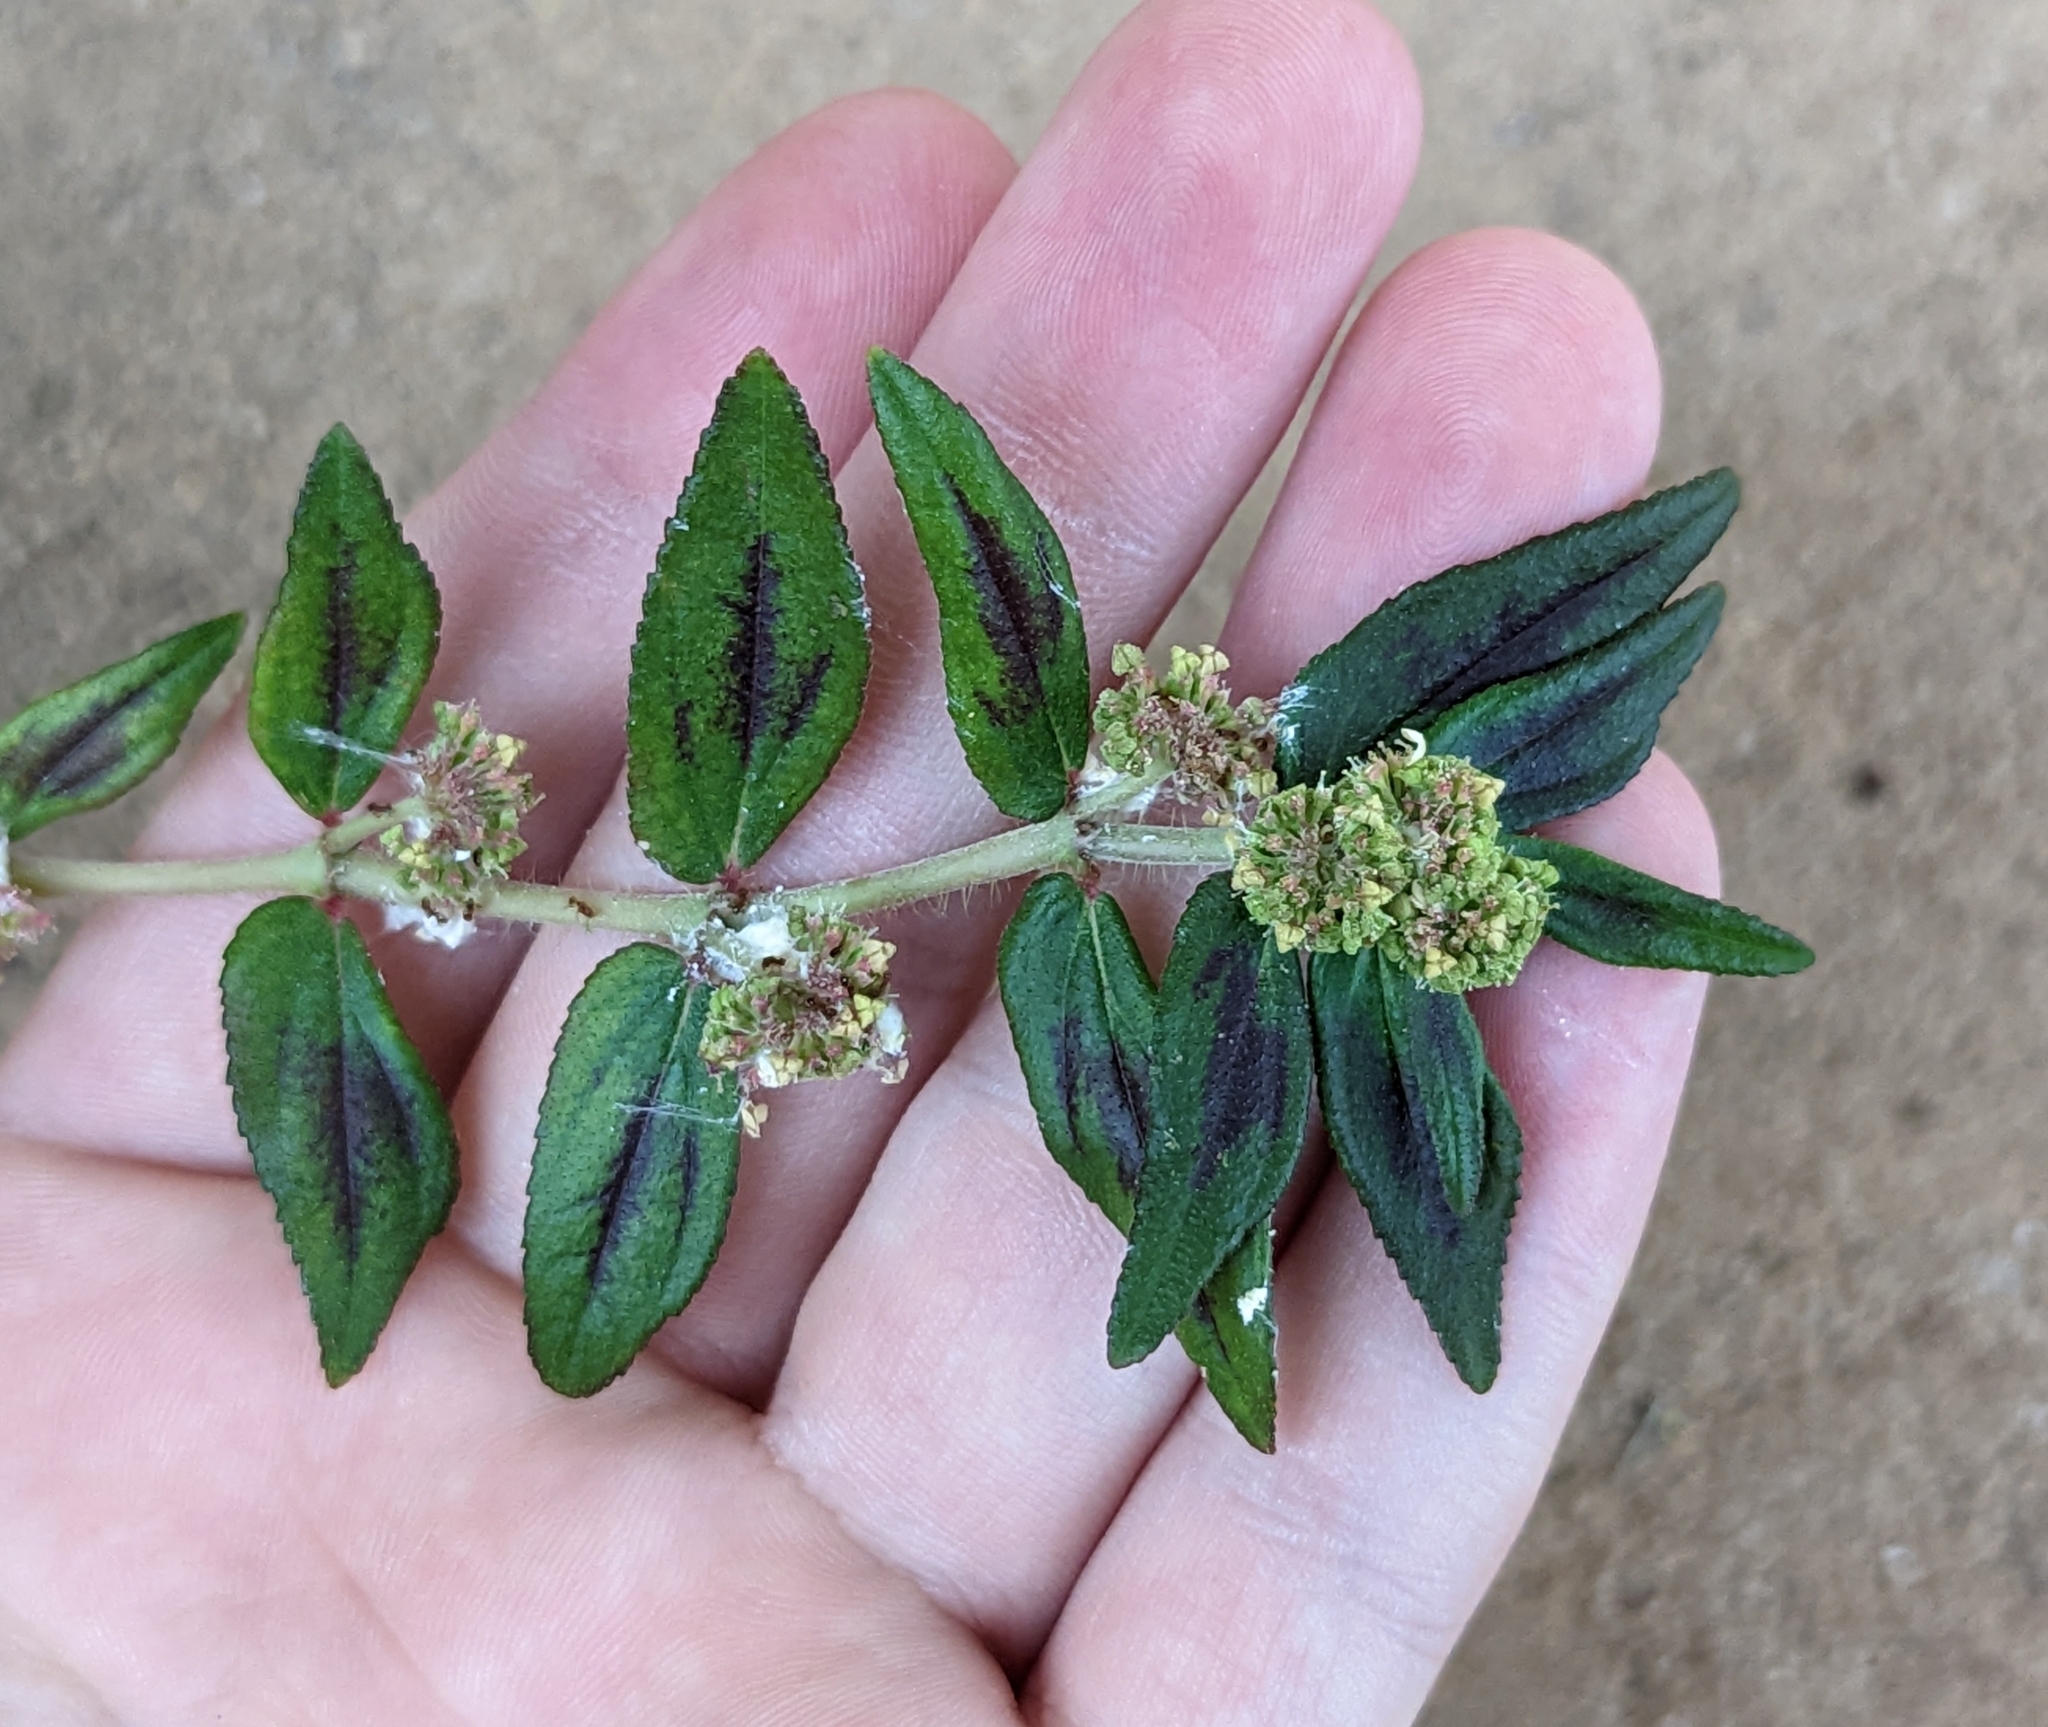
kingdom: Plantae
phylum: Tracheophyta
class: Magnoliopsida
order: Malpighiales
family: Euphorbiaceae
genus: Euphorbia
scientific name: Euphorbia hirta
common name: Pillpod sandmat
